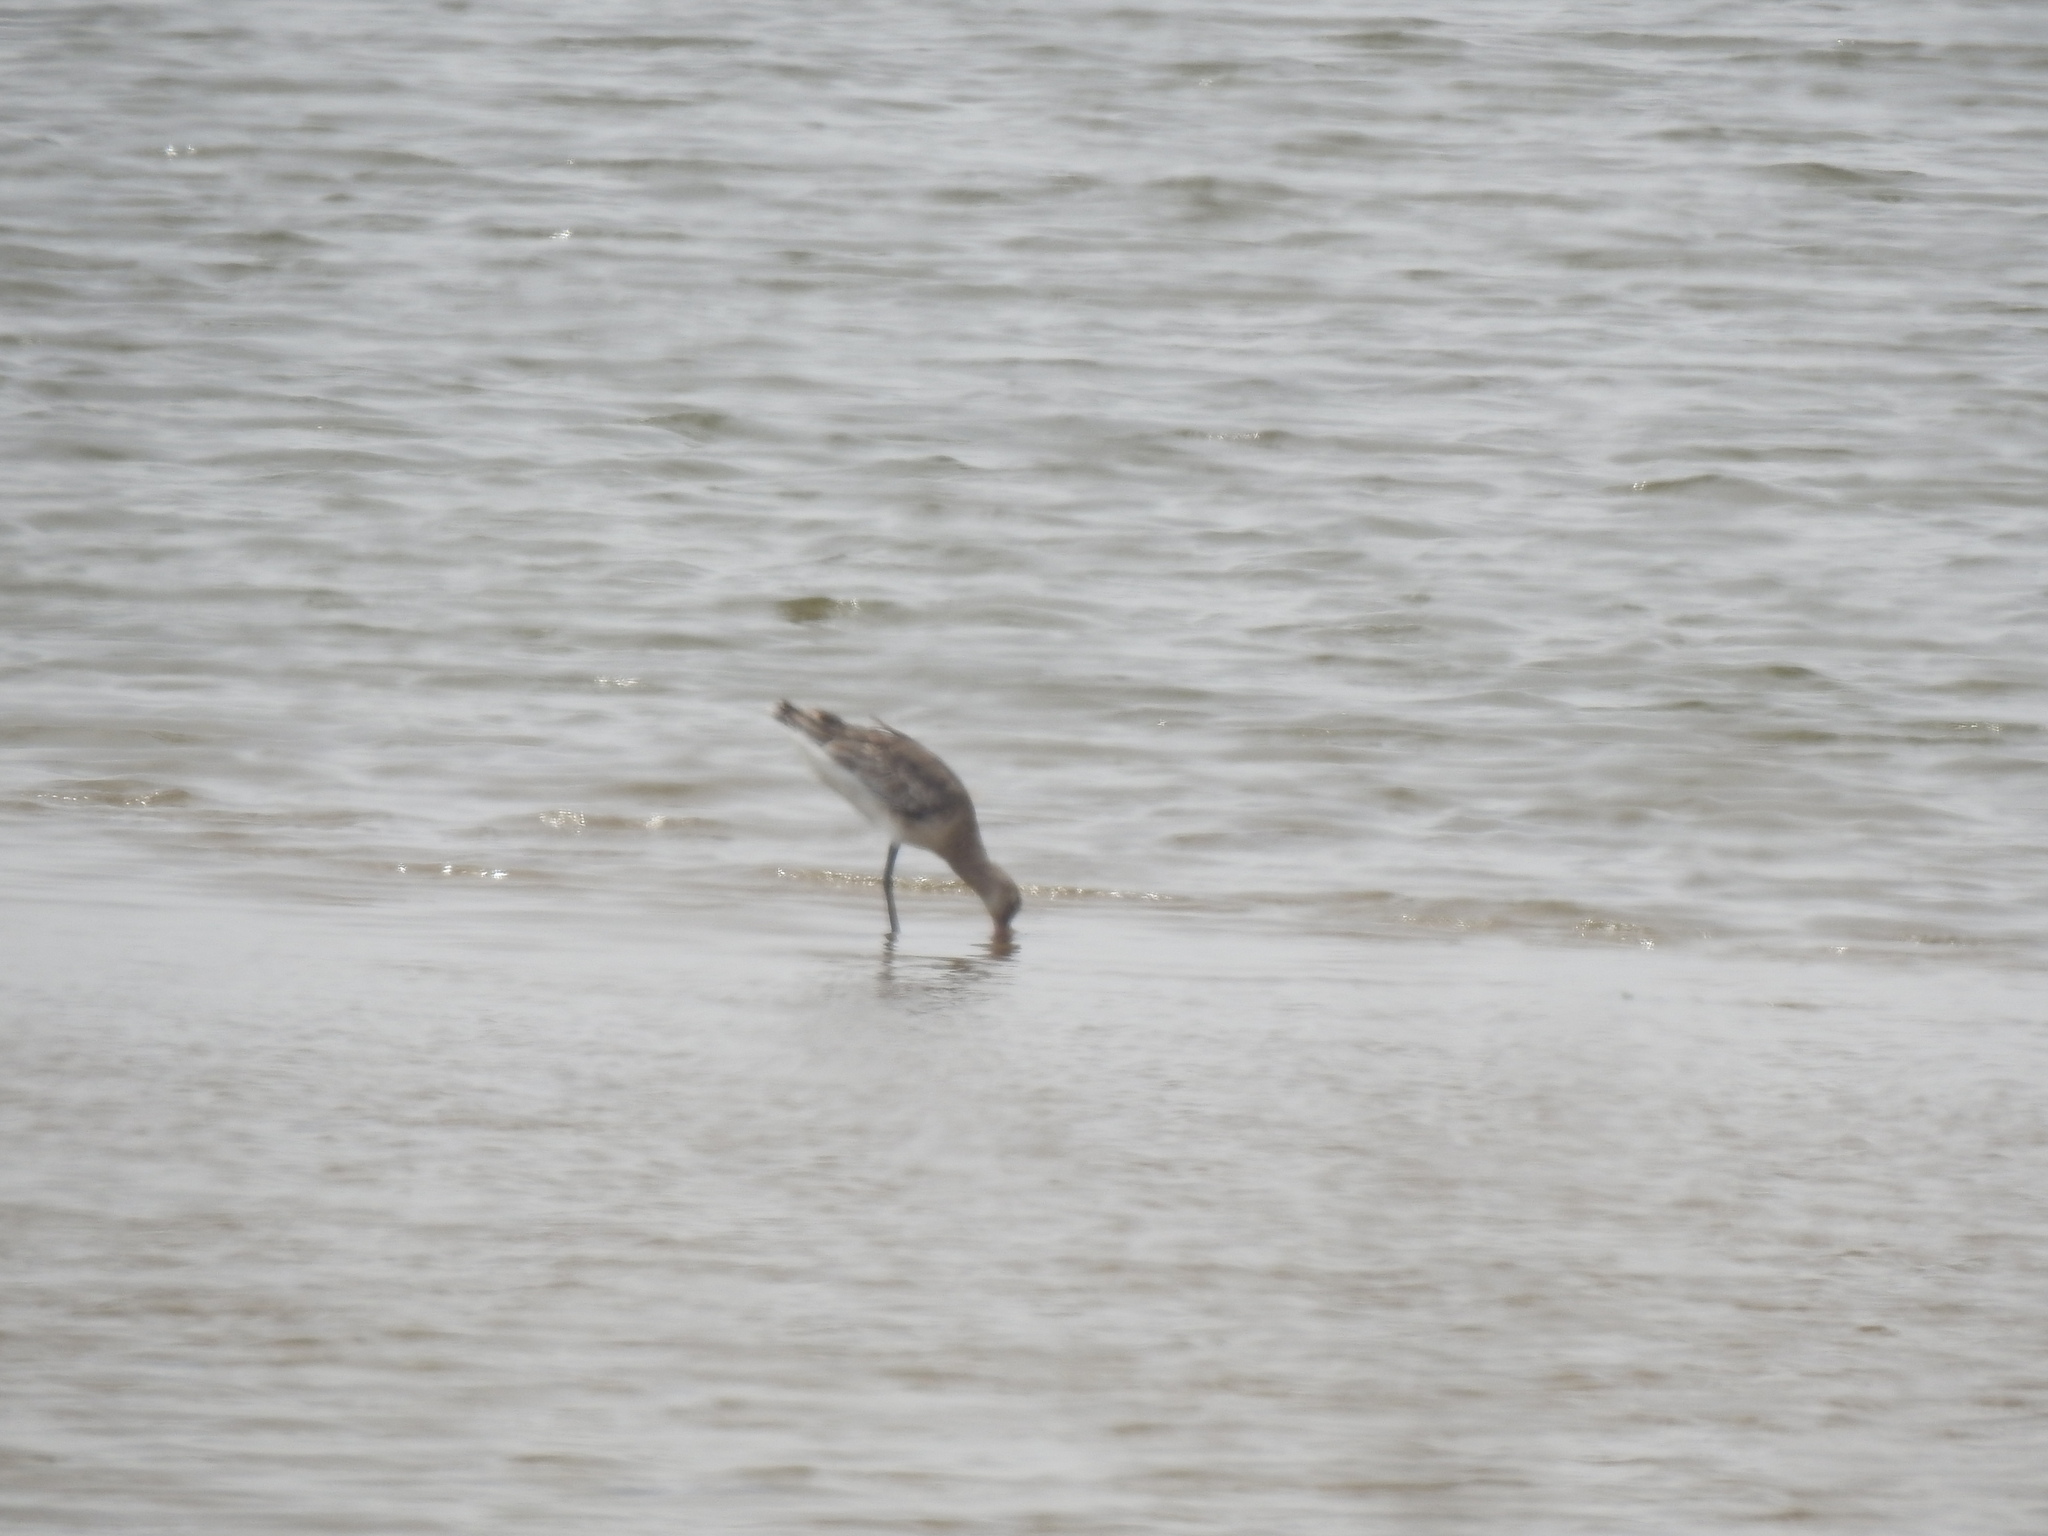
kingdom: Animalia
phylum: Chordata
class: Aves
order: Charadriiformes
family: Scolopacidae
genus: Limosa
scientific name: Limosa limosa
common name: Black-tailed godwit
